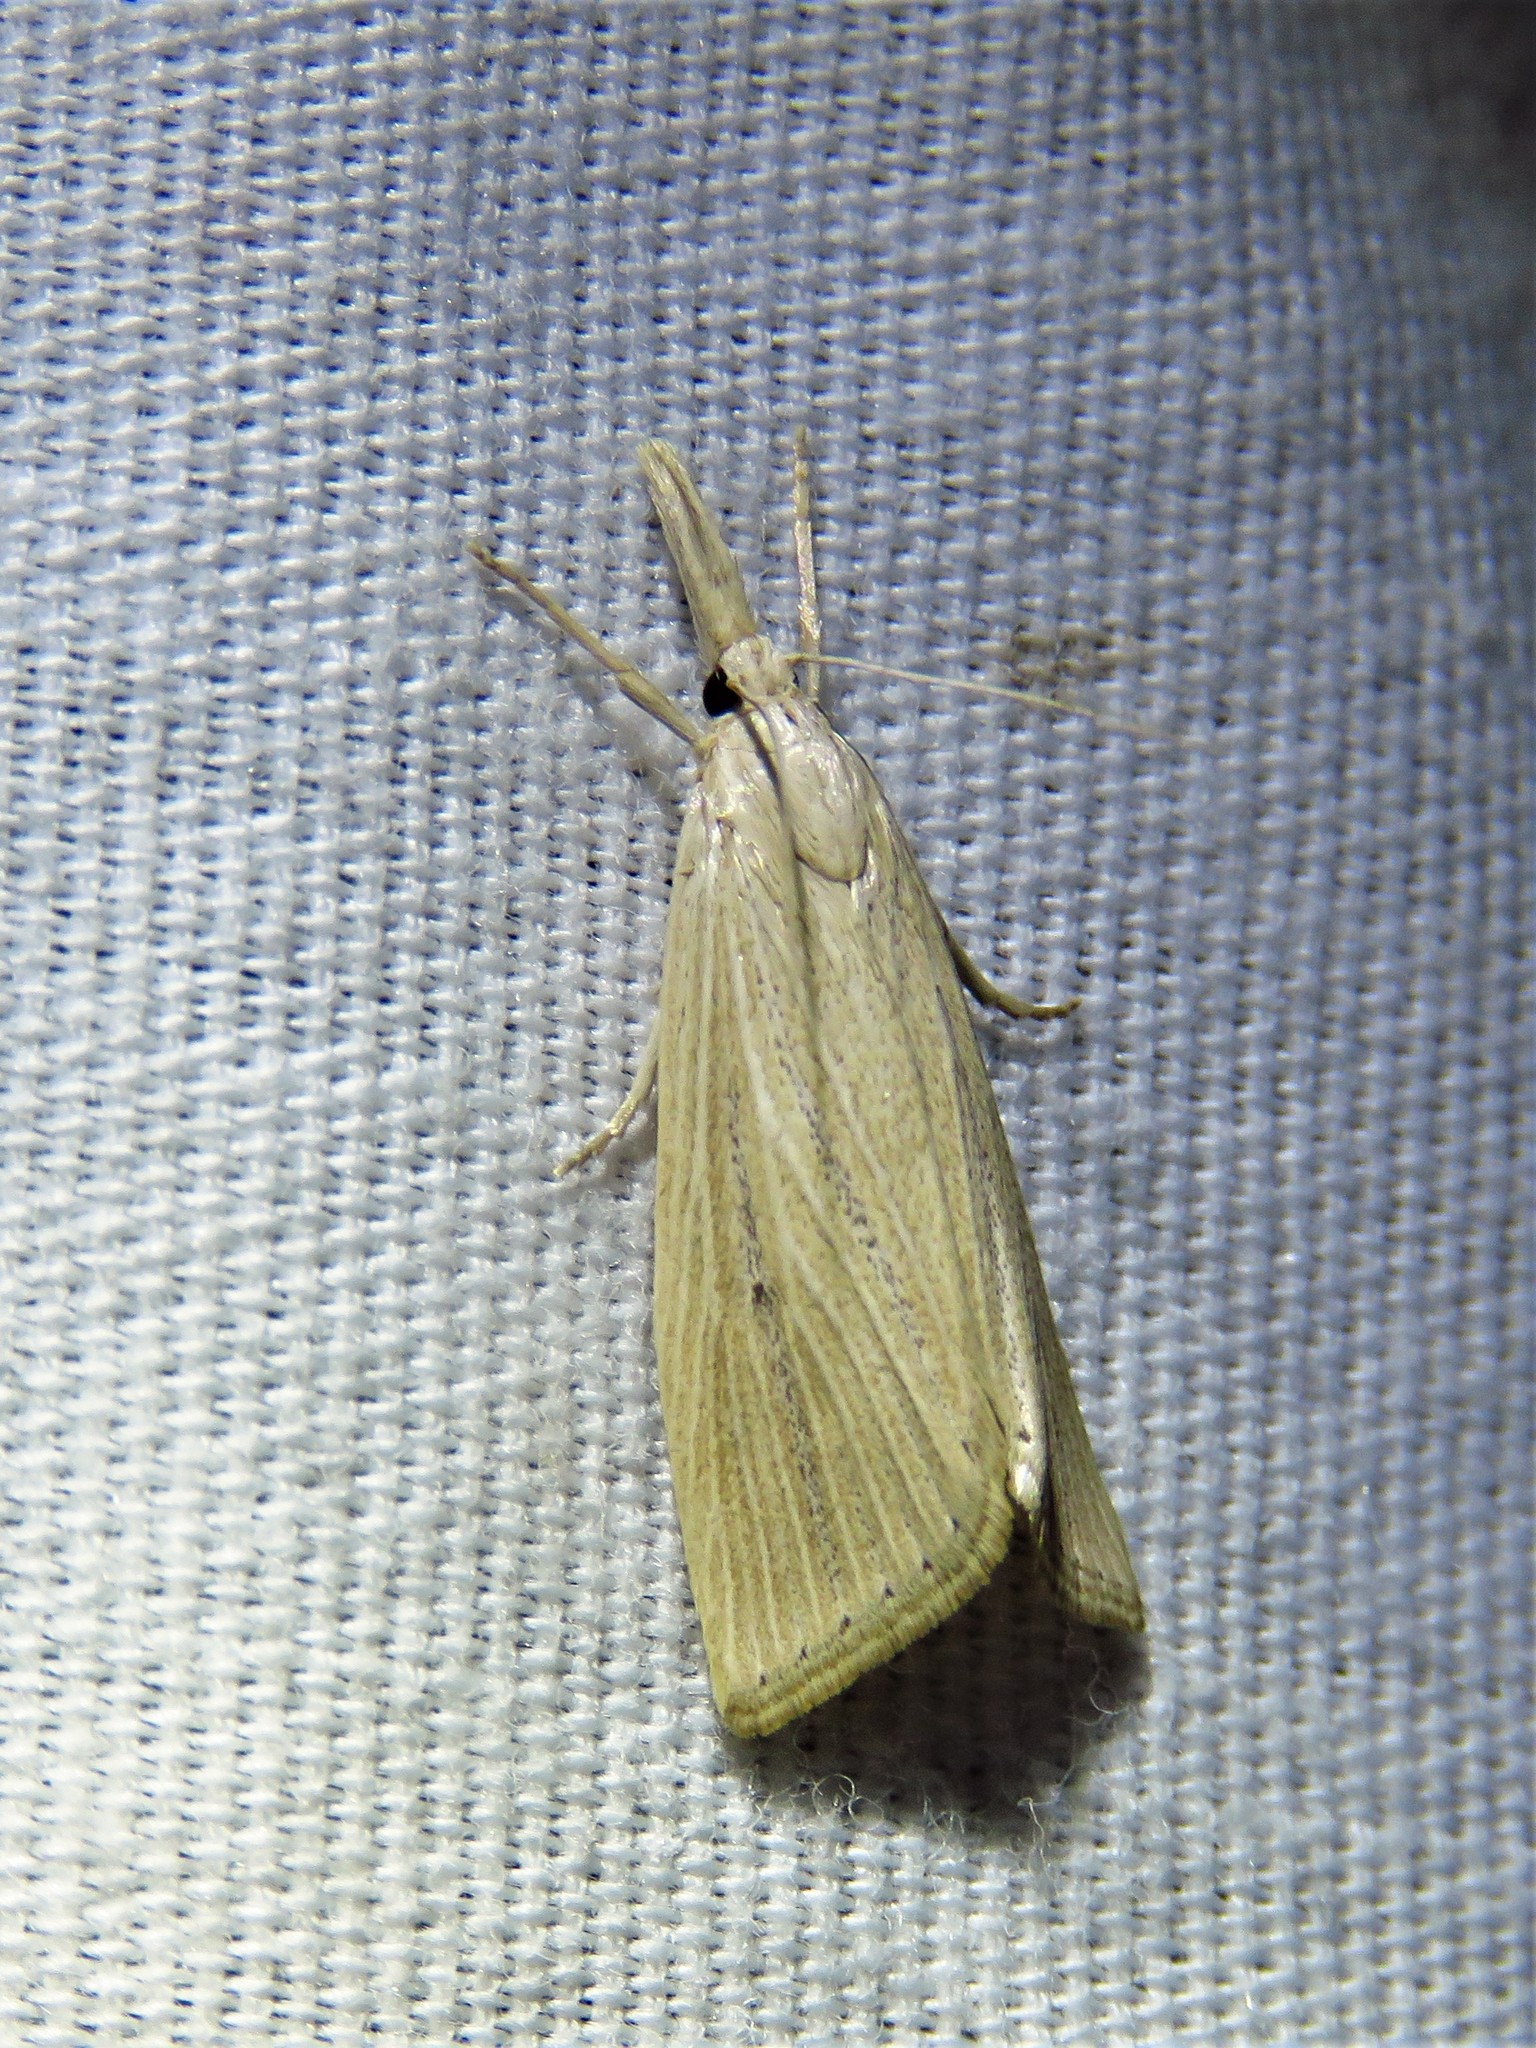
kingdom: Animalia
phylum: Arthropoda
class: Insecta
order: Lepidoptera
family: Crambidae
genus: Eoreuma
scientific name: Eoreuma densellus
